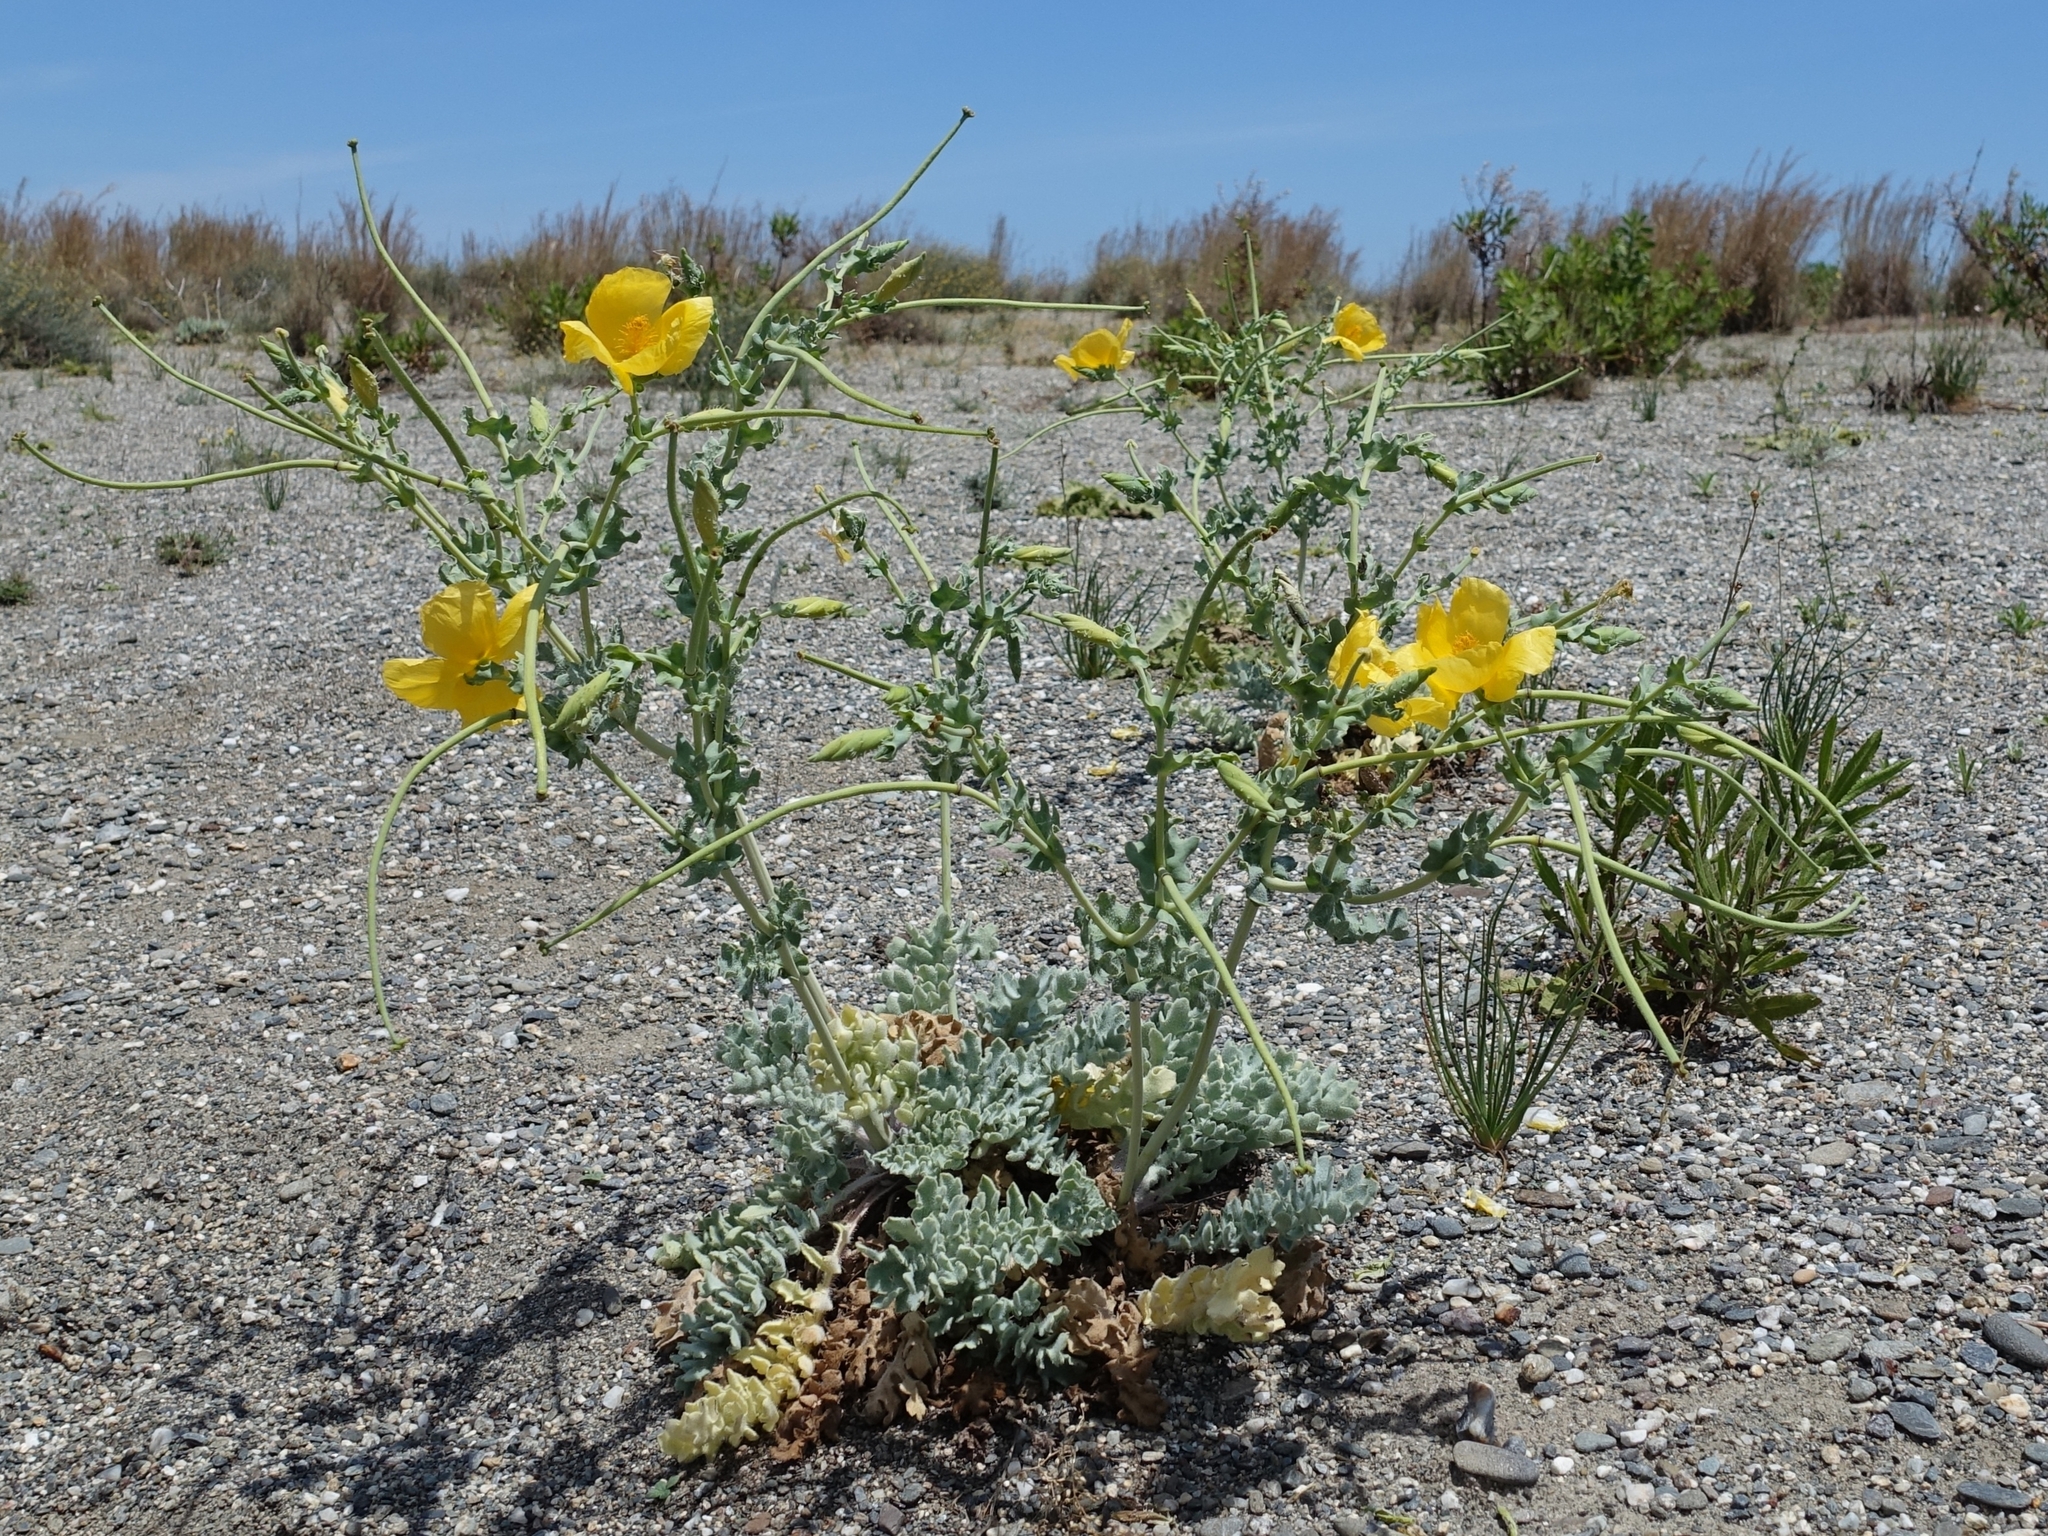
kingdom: Plantae
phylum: Tracheophyta
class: Magnoliopsida
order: Ranunculales
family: Papaveraceae
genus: Glaucium
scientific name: Glaucium flavum
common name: Yellow horned-poppy
